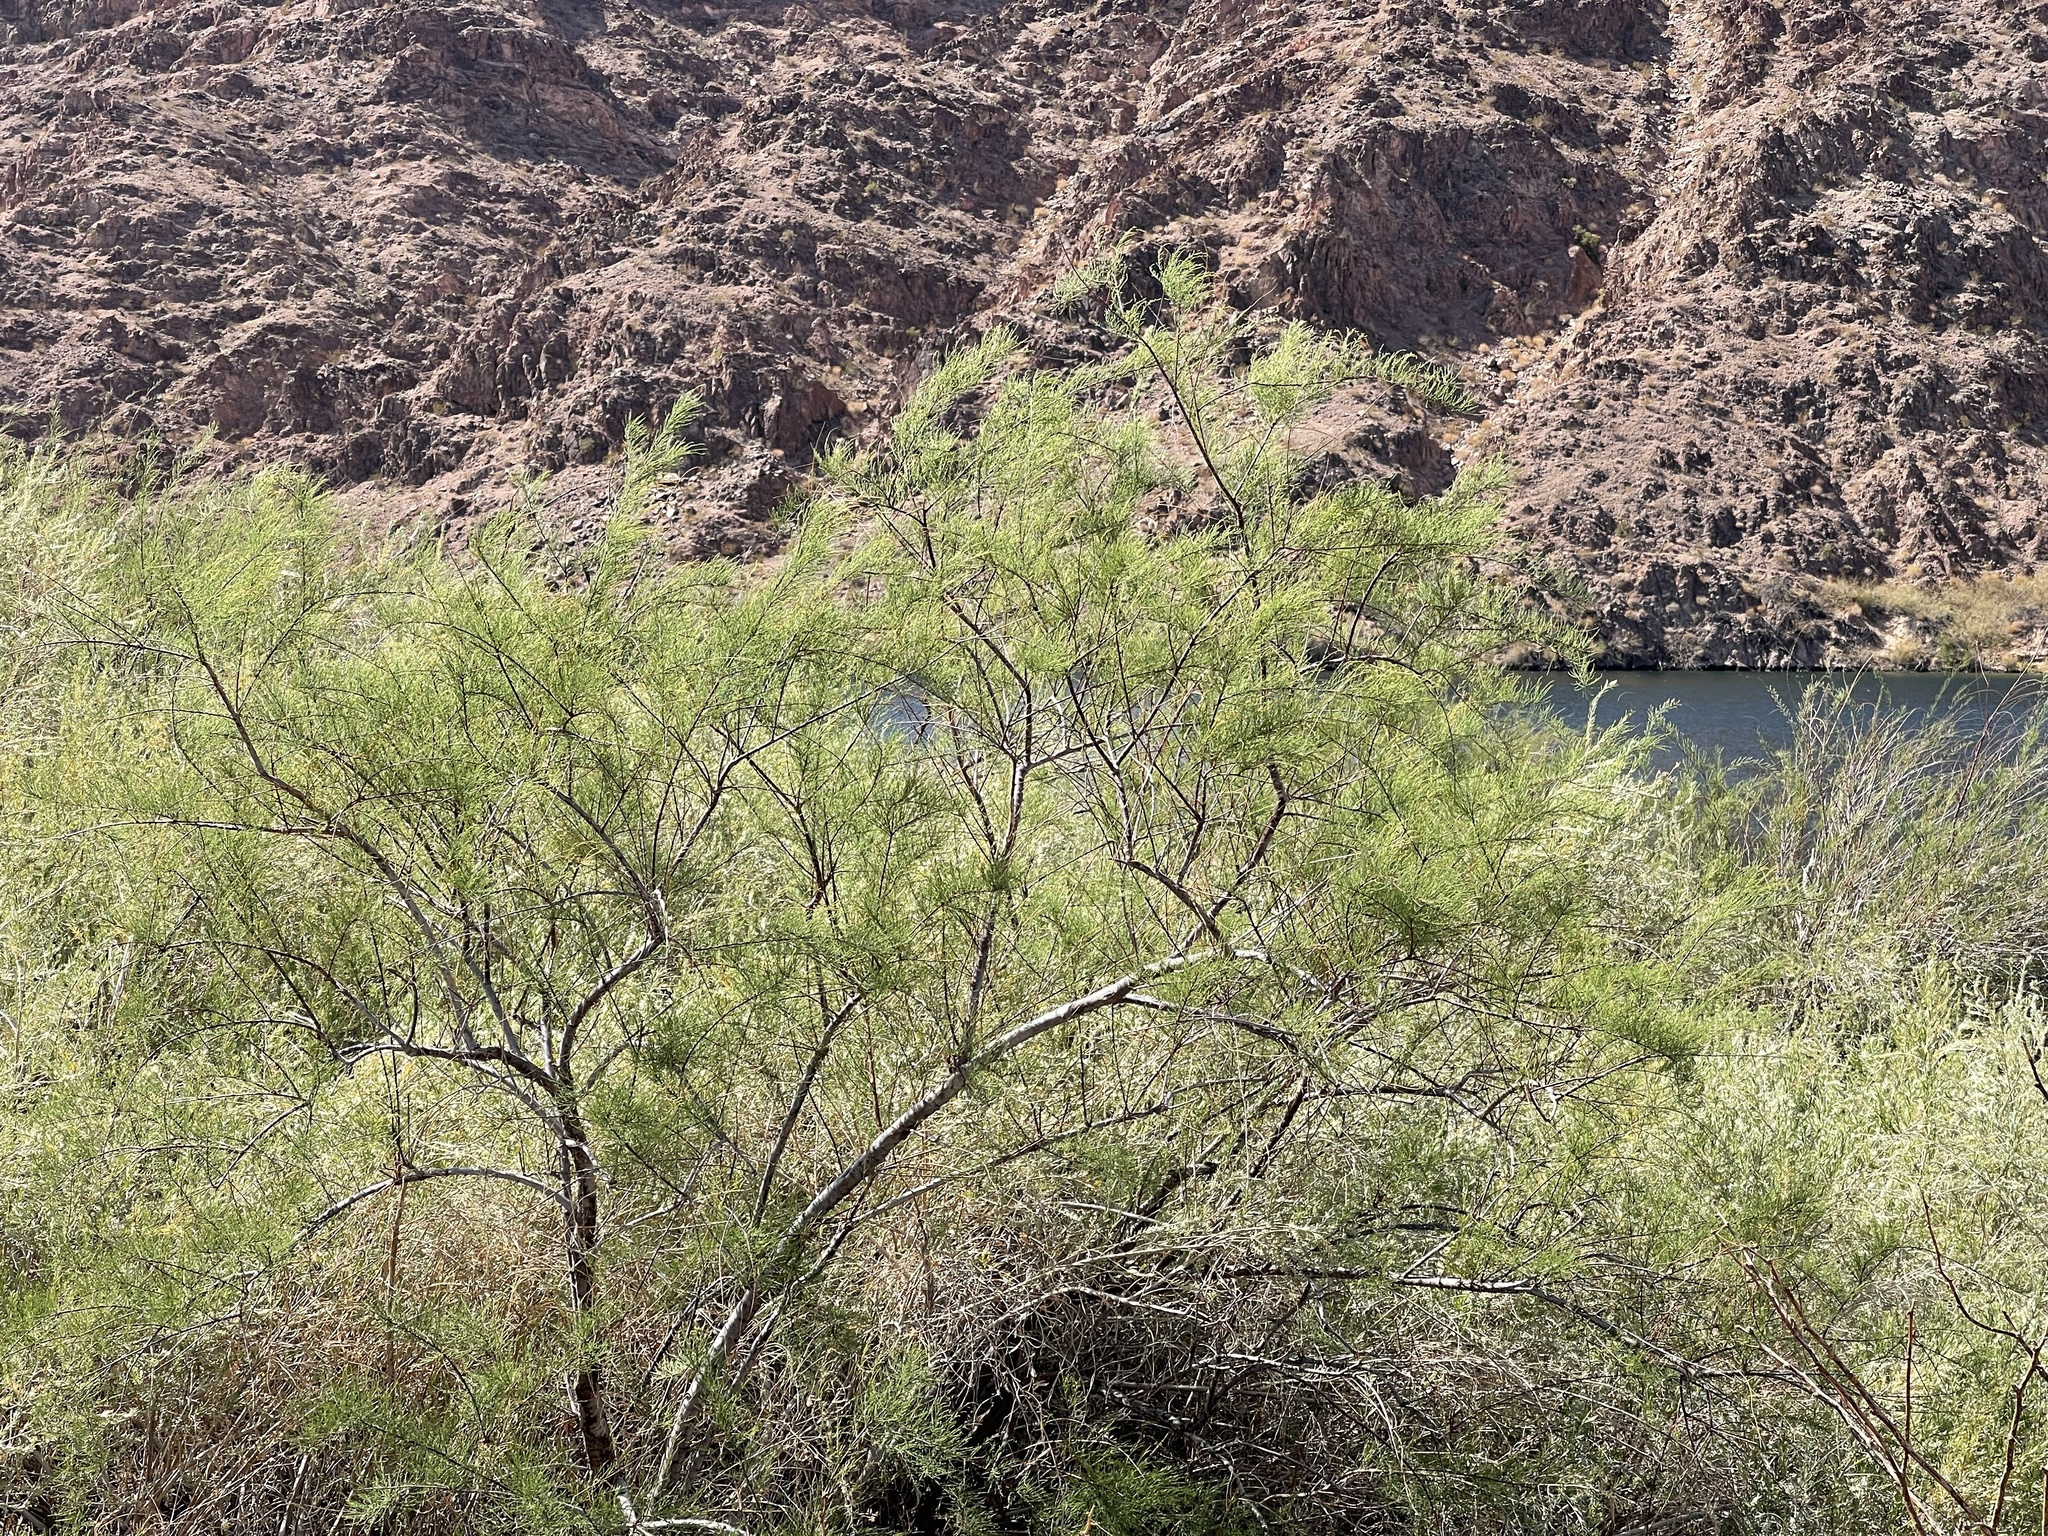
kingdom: Plantae
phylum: Tracheophyta
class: Magnoliopsida
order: Caryophyllales
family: Tamaricaceae
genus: Tamarix
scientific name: Tamarix
